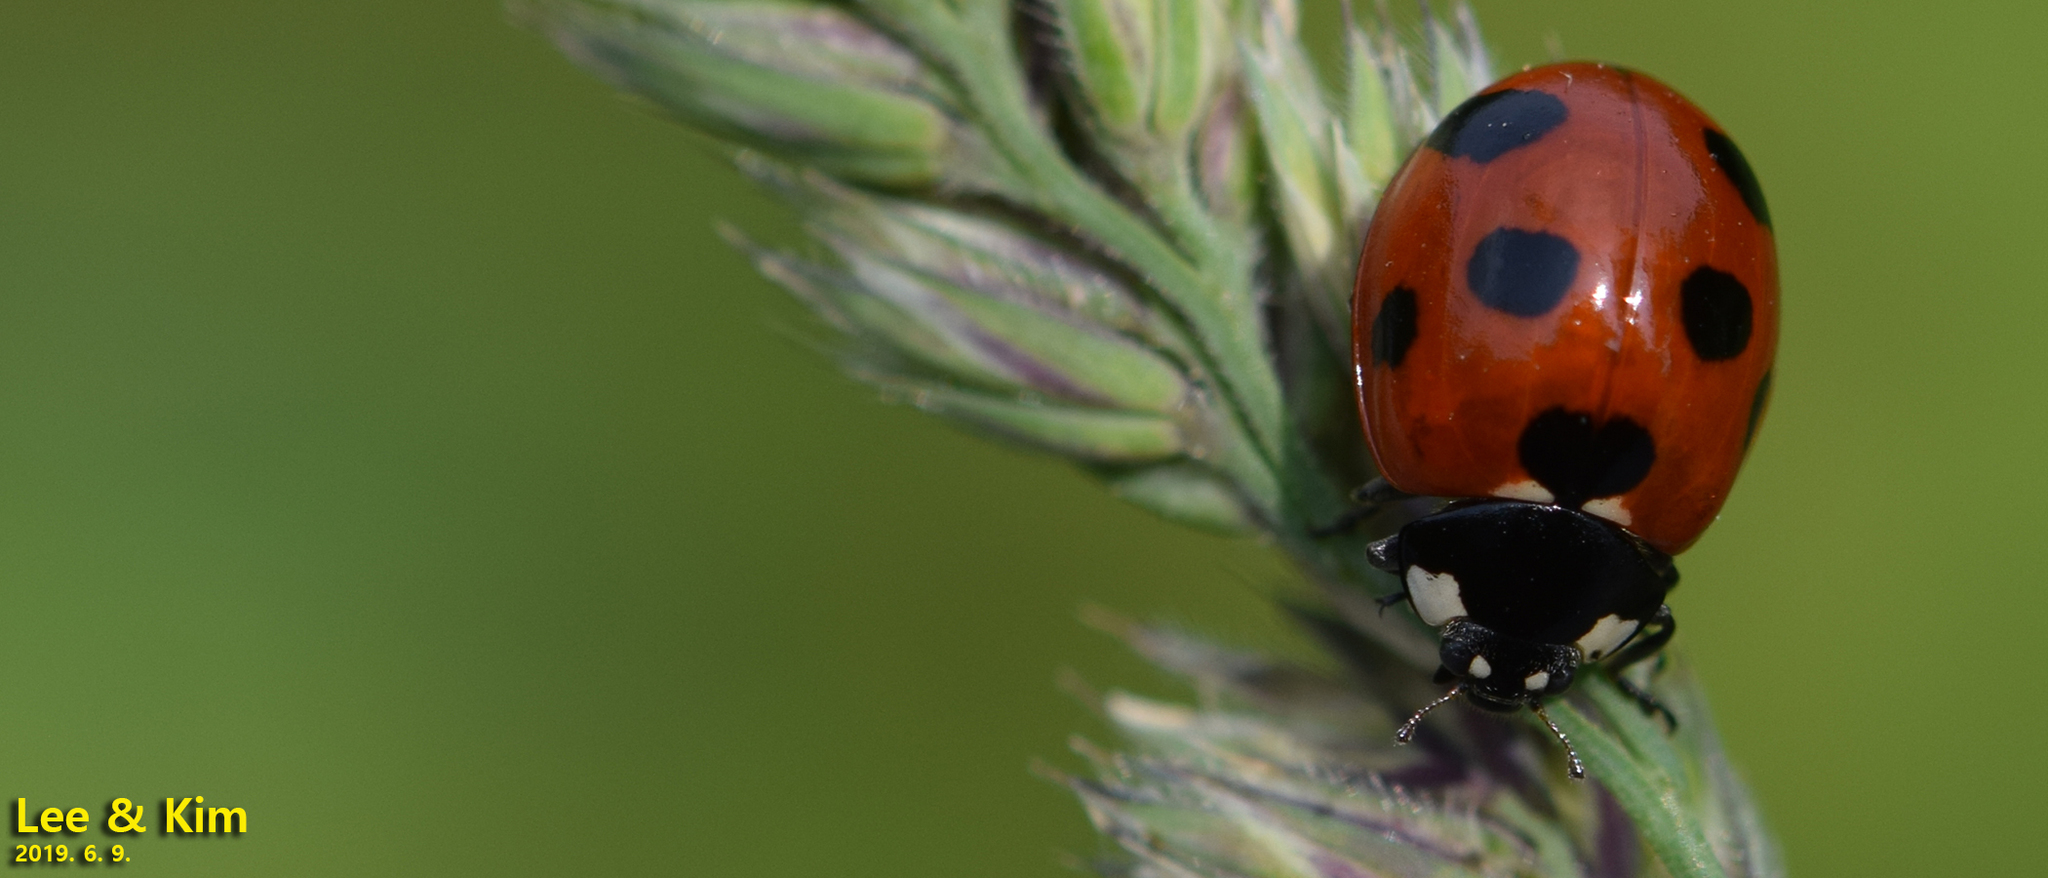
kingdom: Animalia
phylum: Arthropoda
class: Insecta
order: Coleoptera
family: Coccinellidae
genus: Coccinella
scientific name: Coccinella septempunctata
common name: Sevenspotted lady beetle
